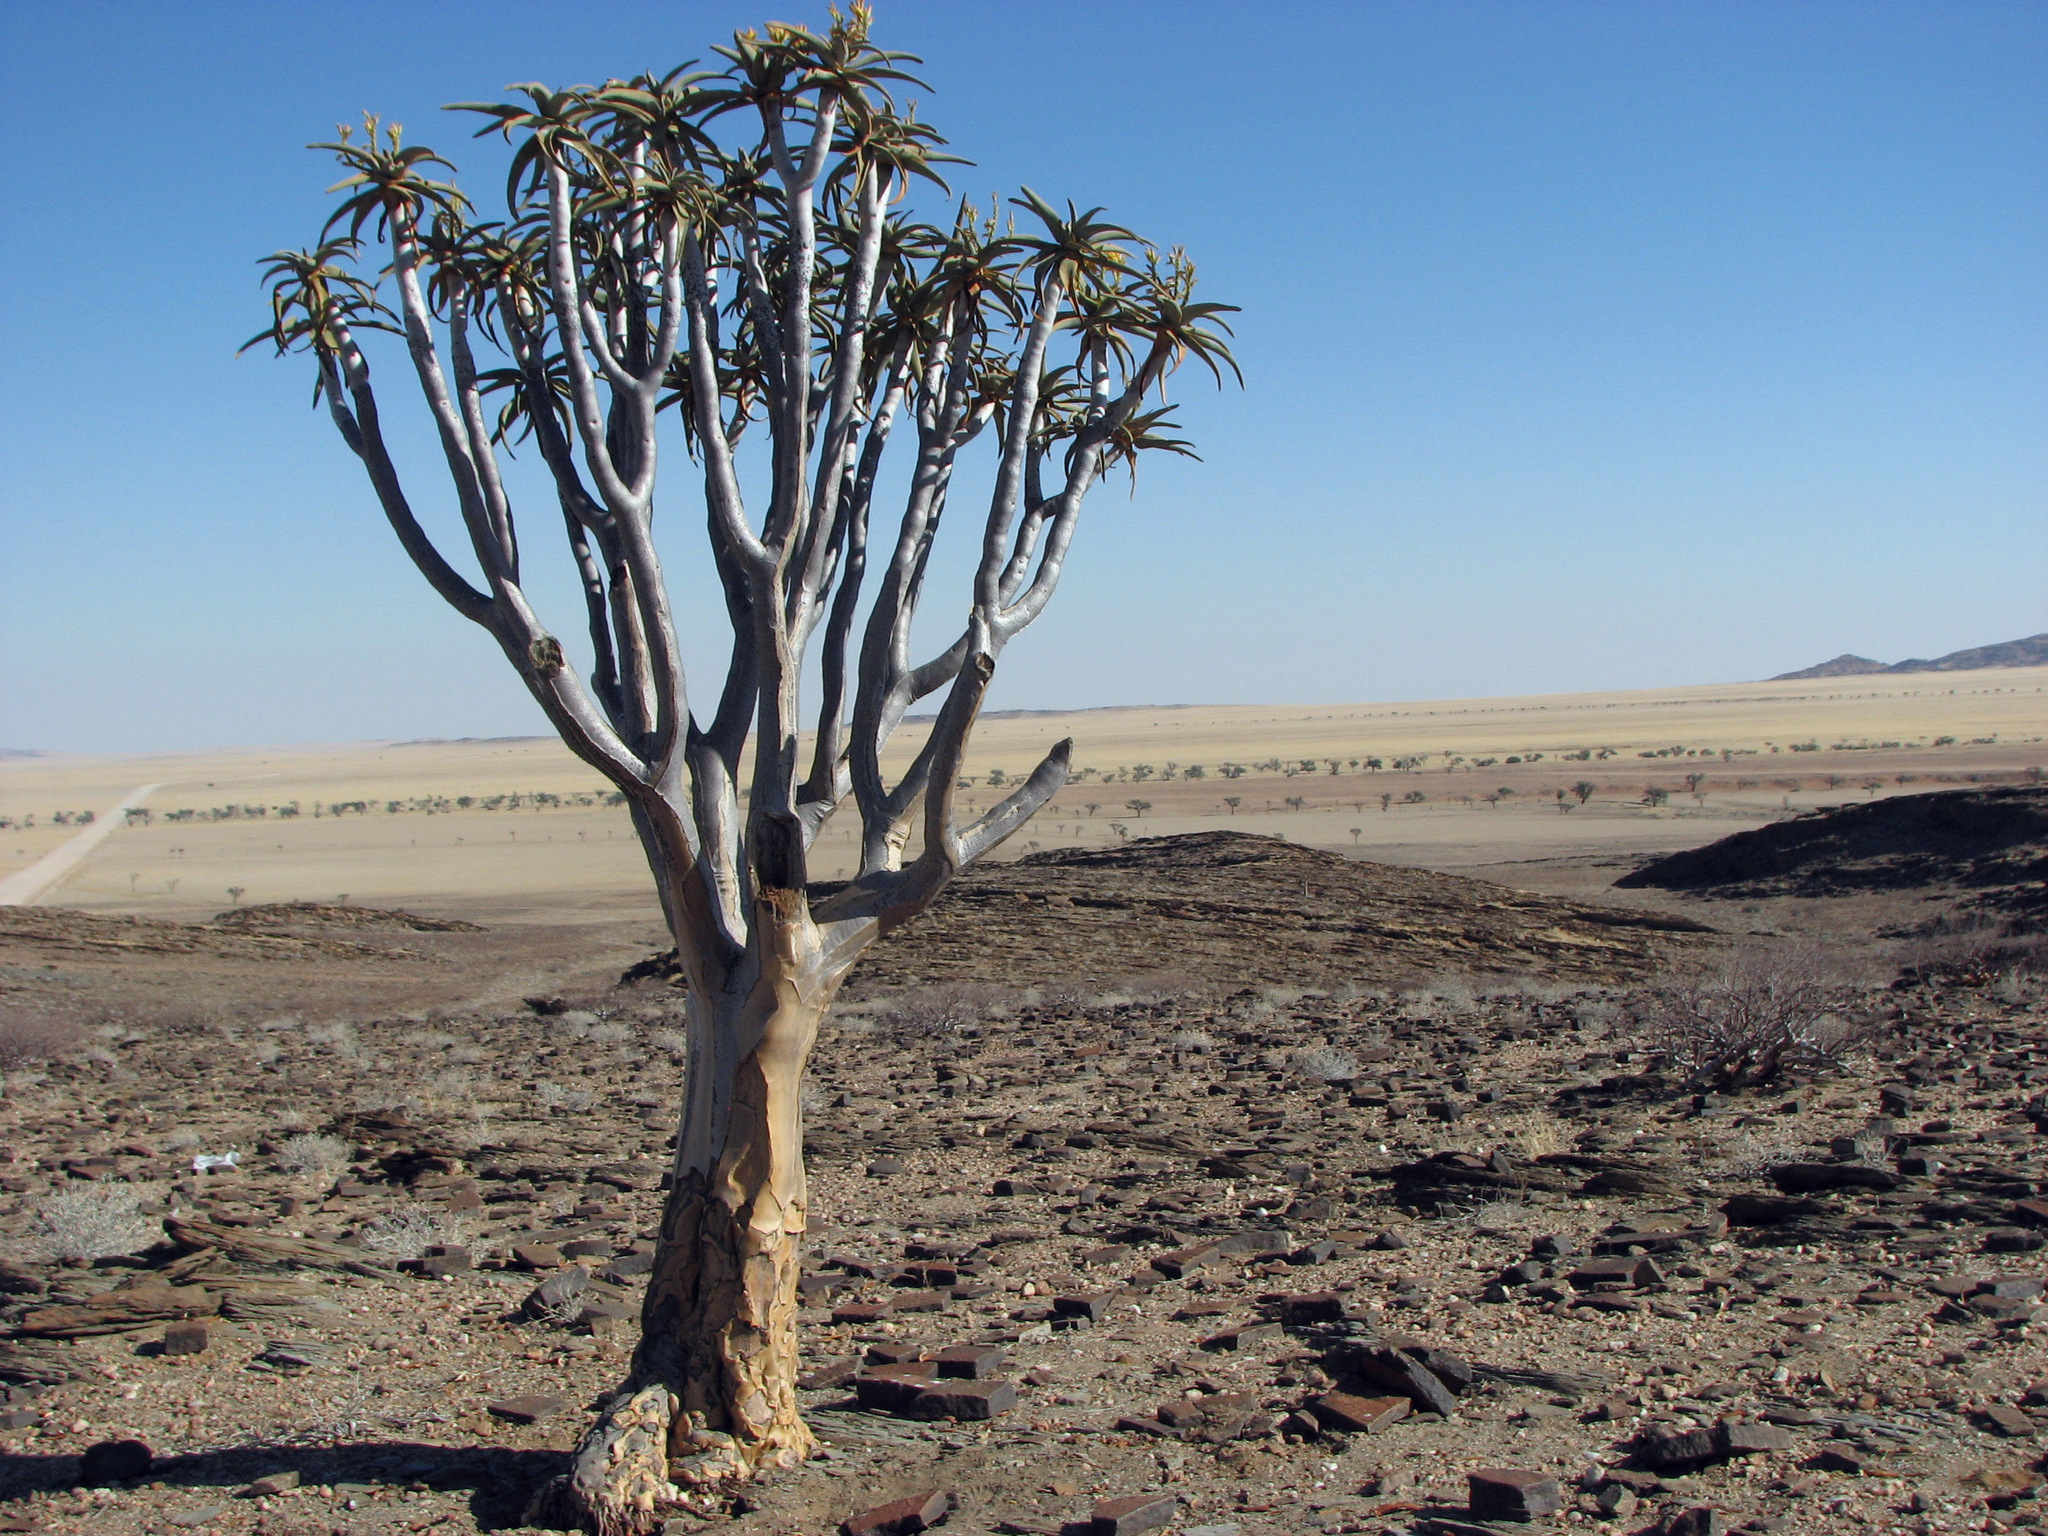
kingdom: Plantae
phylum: Tracheophyta
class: Liliopsida
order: Asparagales
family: Asphodelaceae
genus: Aloidendron
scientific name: Aloidendron dichotomum
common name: Quiver tree
